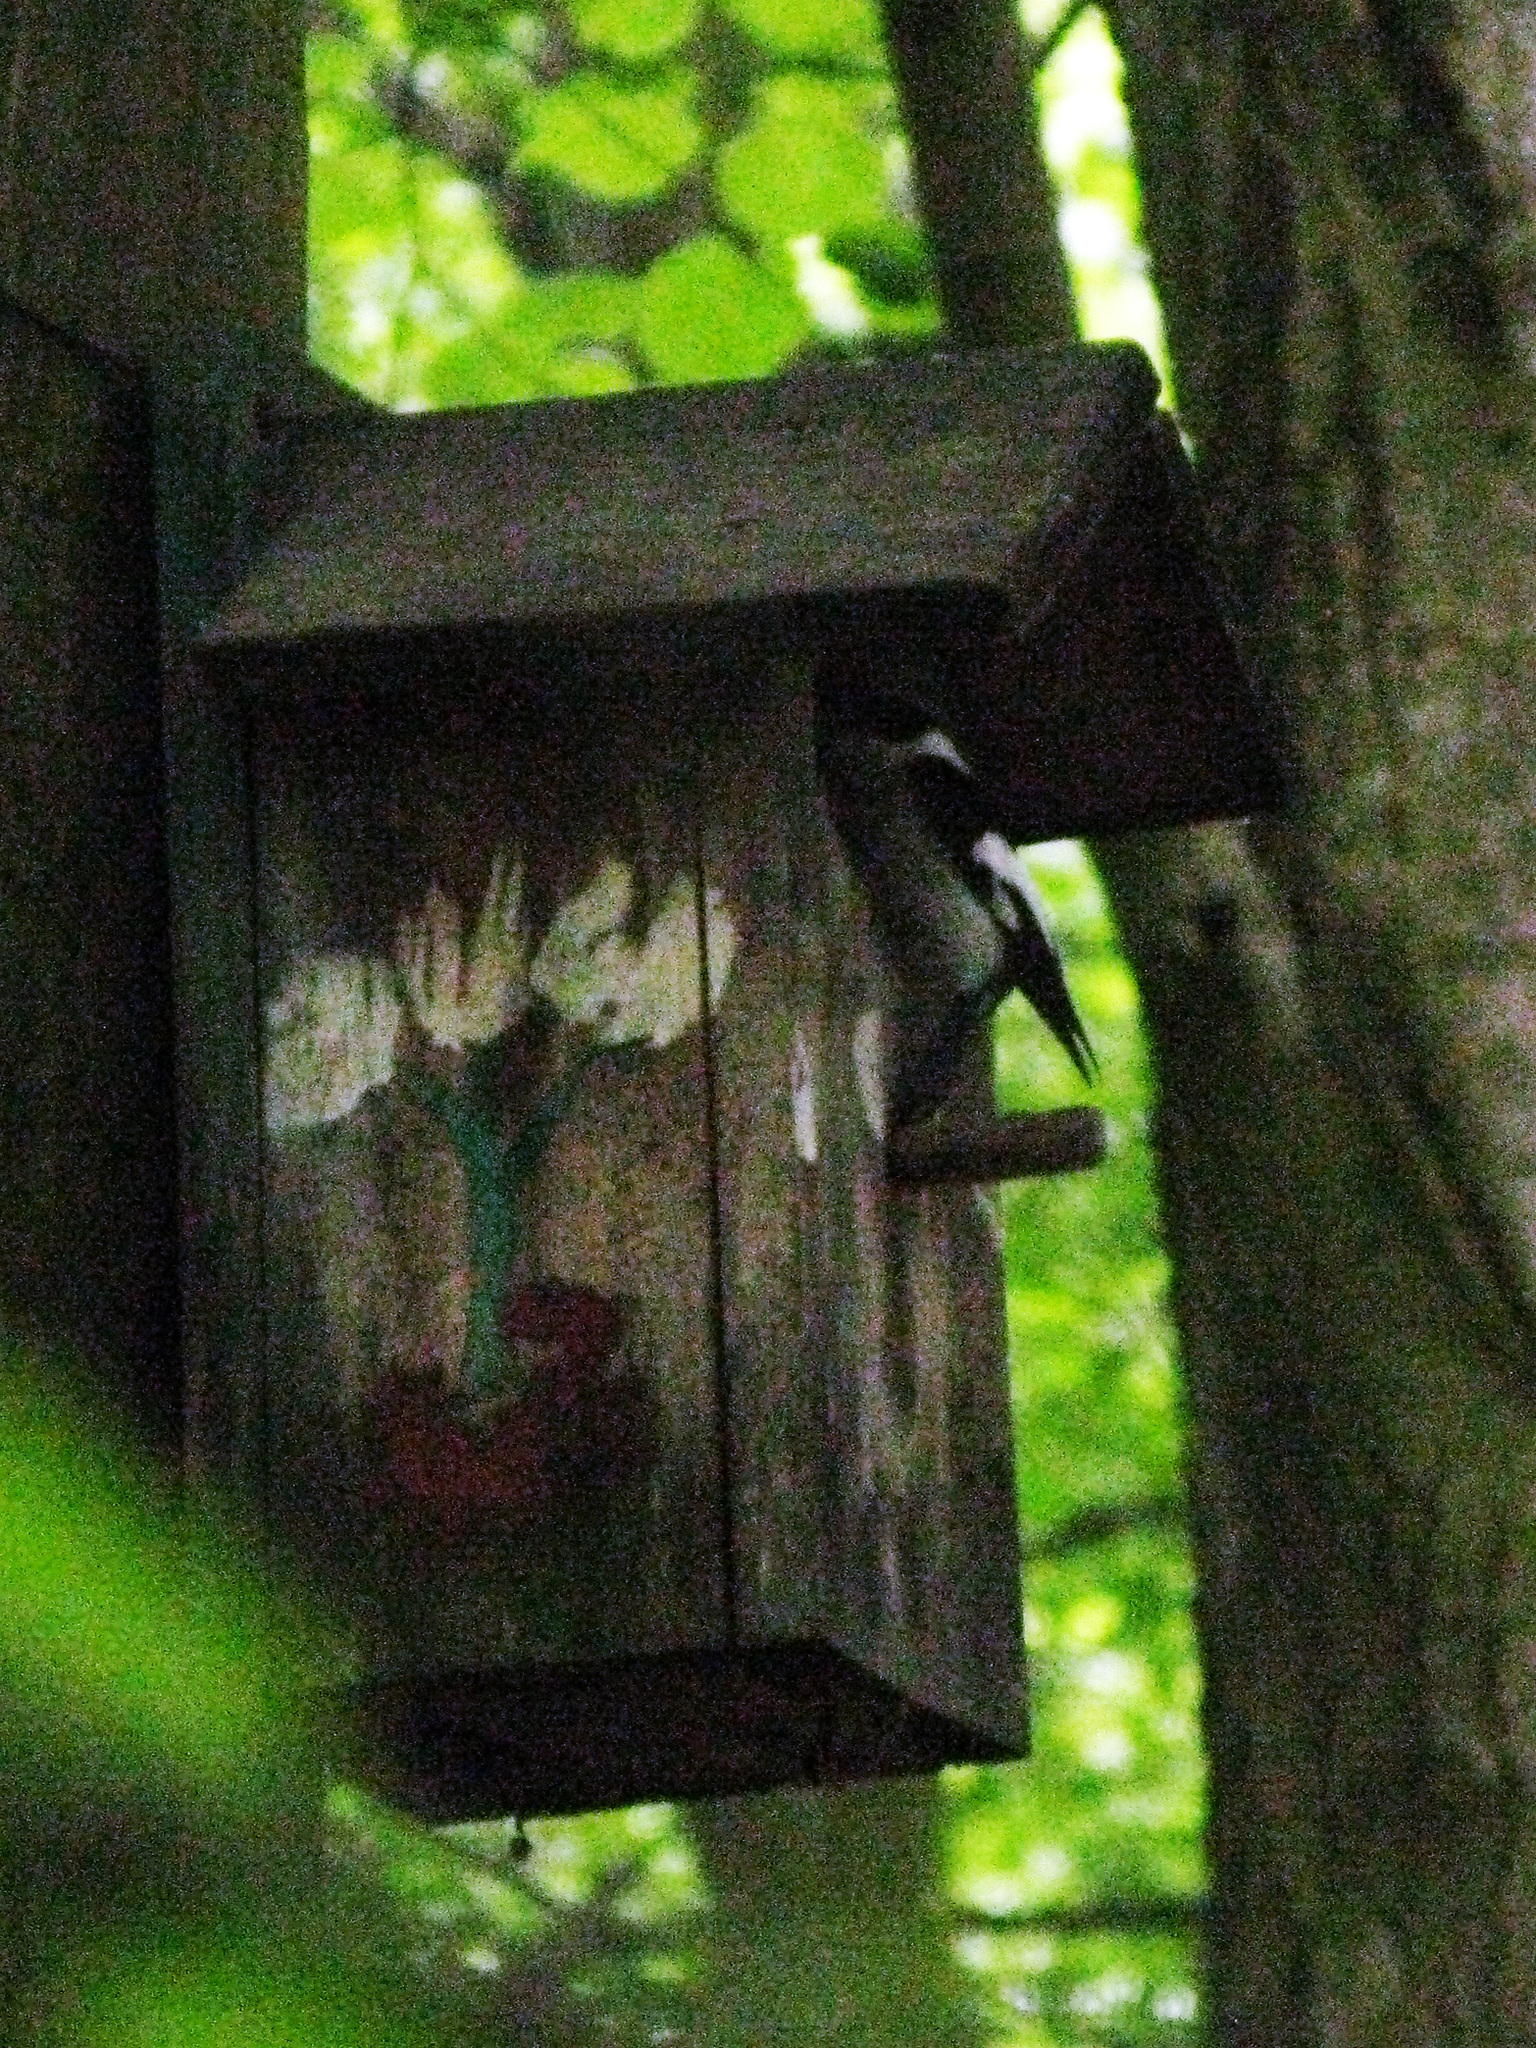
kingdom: Animalia
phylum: Chordata
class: Aves
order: Passeriformes
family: Muscicapidae
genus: Ficedula
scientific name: Ficedula albicollis
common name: Collared flycatcher
